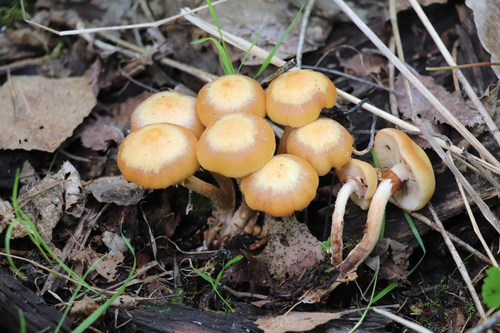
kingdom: Fungi
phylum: Basidiomycota
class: Agaricomycetes
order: Agaricales
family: Strophariaceae
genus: Kuehneromyces
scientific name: Kuehneromyces mutabilis
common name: Sheathed woodtuft
